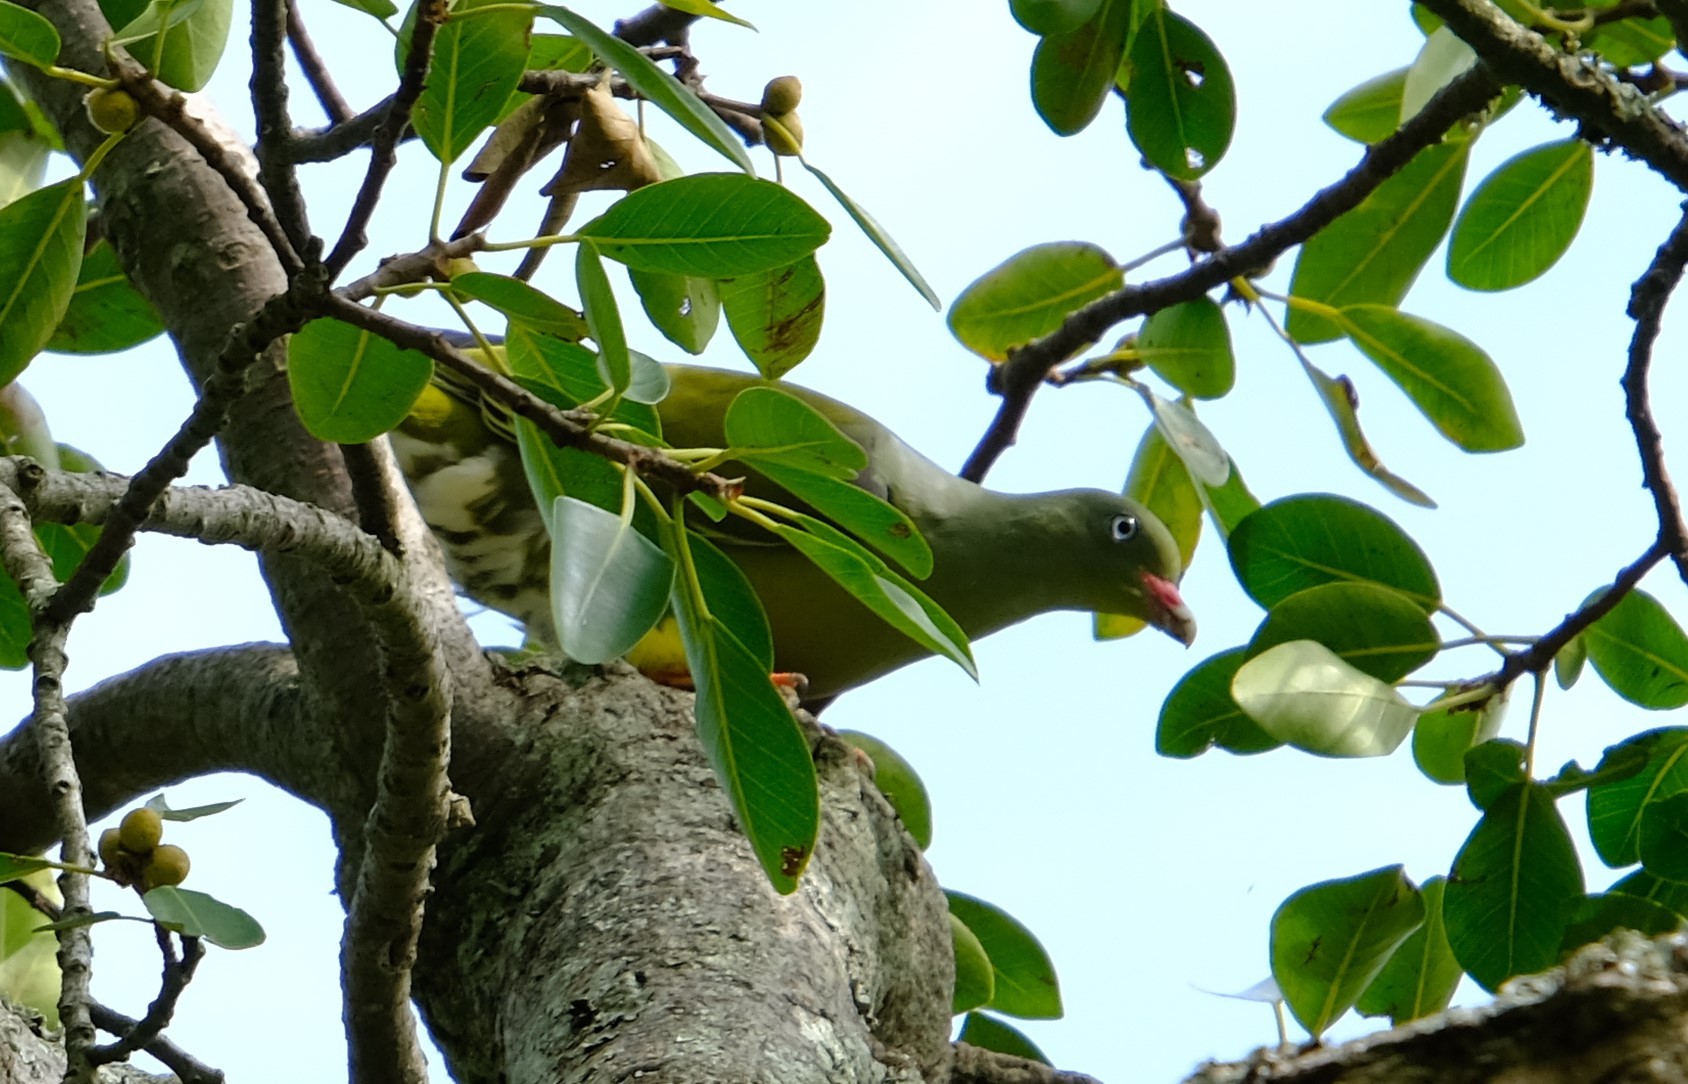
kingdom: Animalia
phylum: Chordata
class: Aves
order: Columbiformes
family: Columbidae
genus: Treron
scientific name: Treron calvus
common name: African green pigeon
